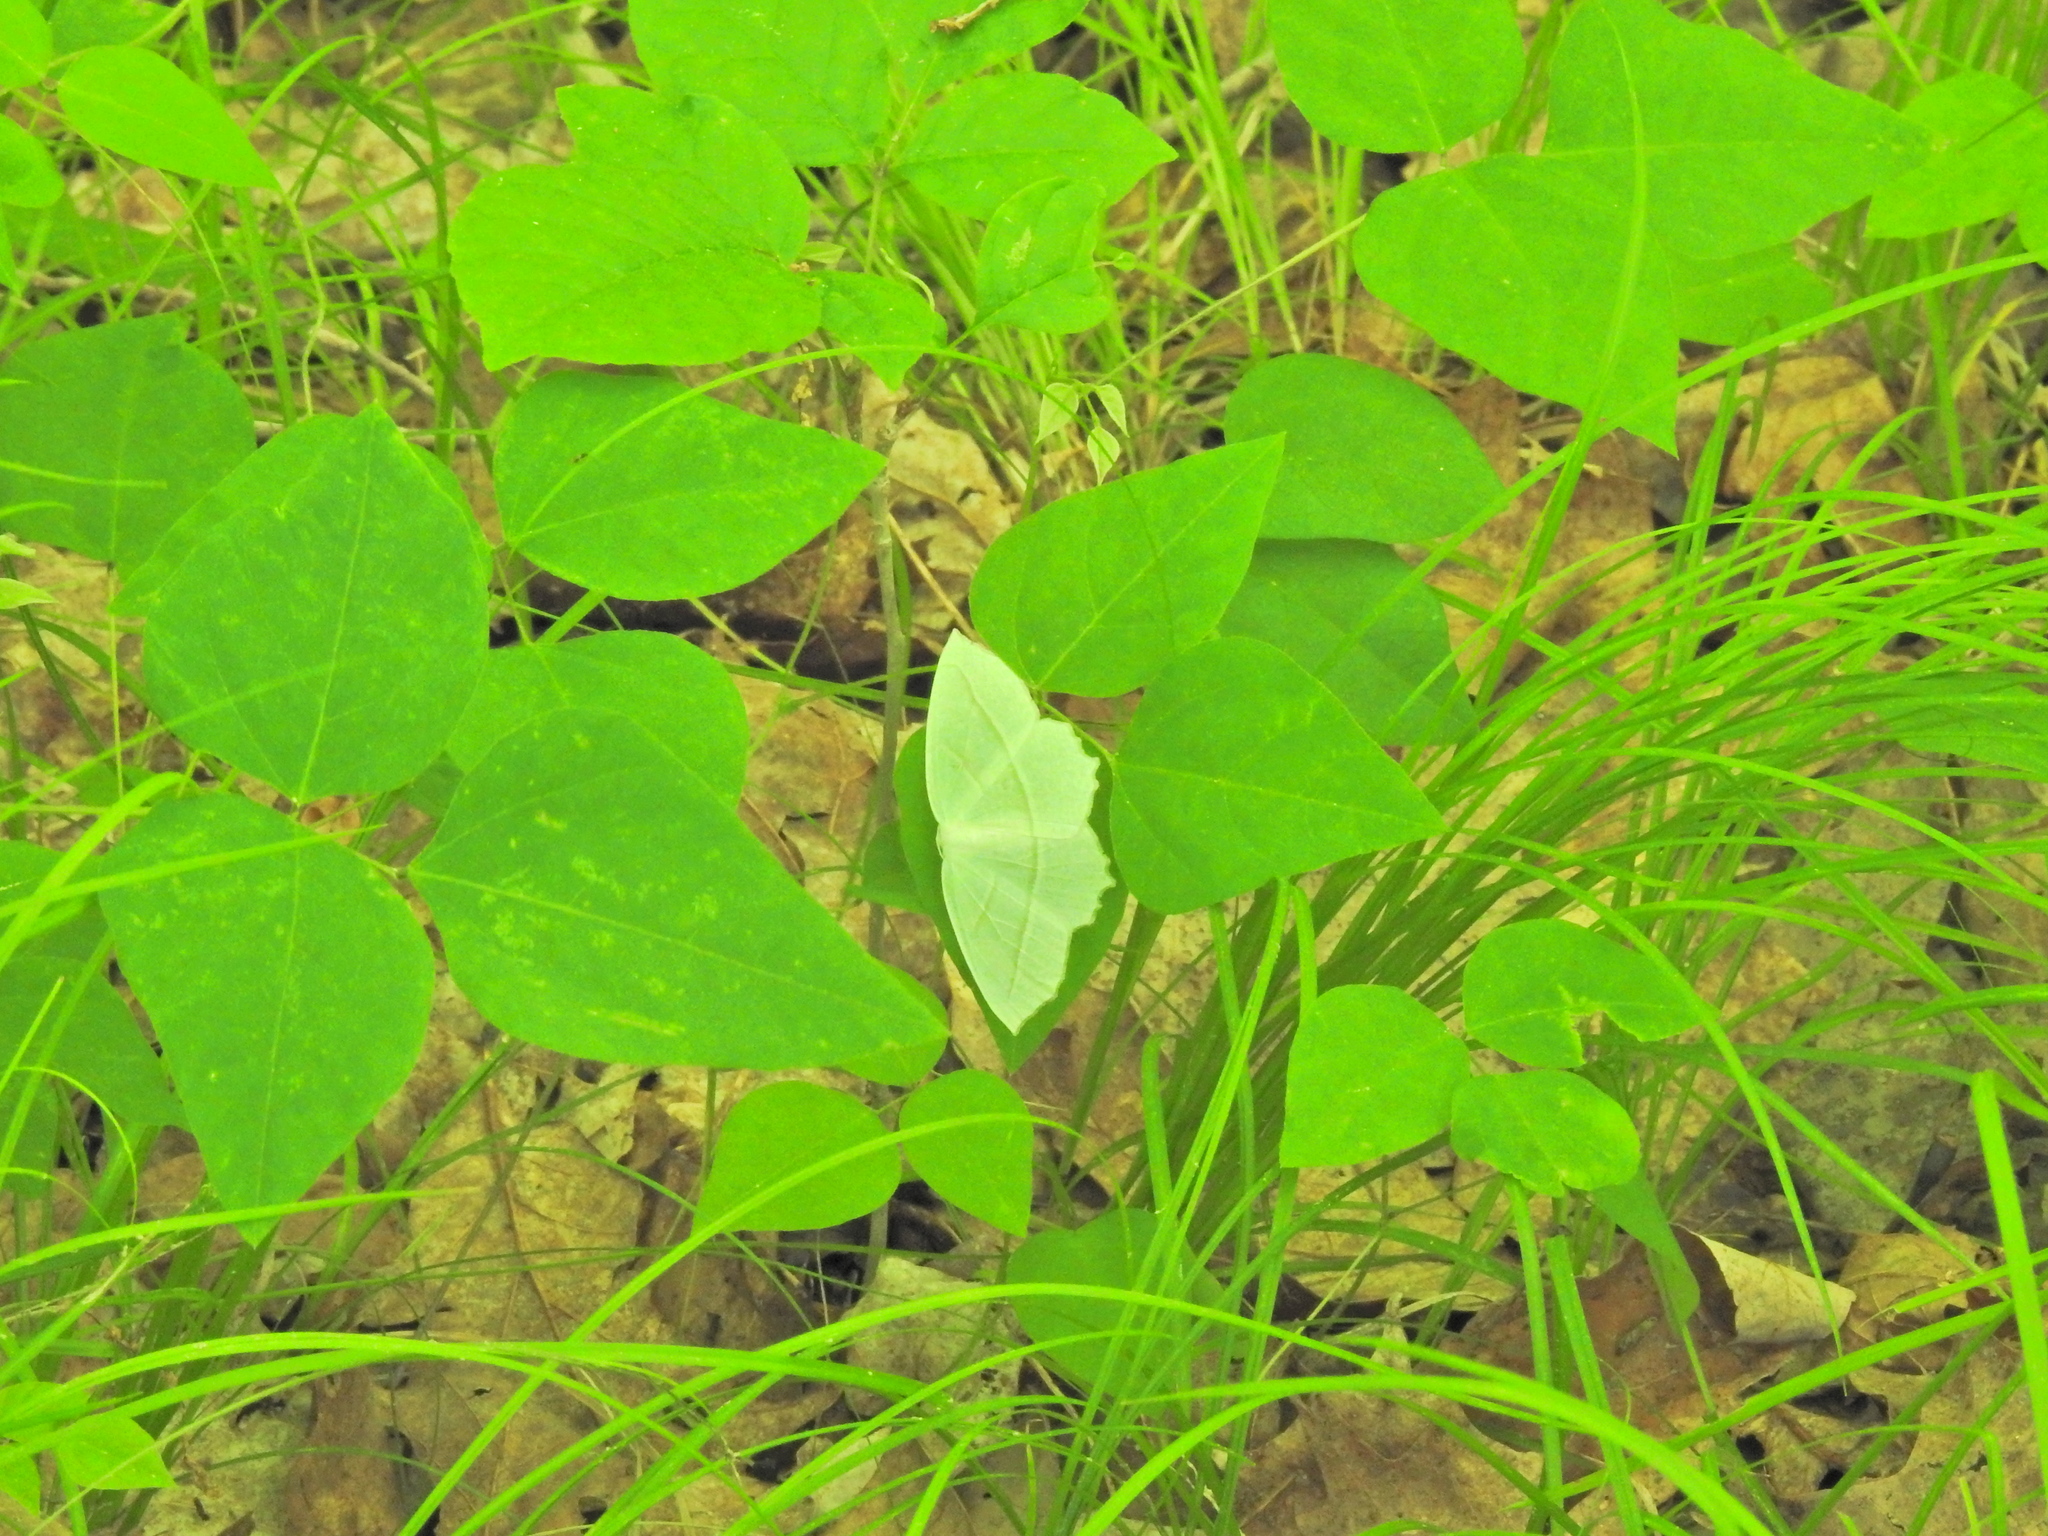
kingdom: Animalia
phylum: Arthropoda
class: Insecta
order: Lepidoptera
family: Geometridae
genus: Campaea
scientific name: Campaea perlata
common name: Fringed looper
